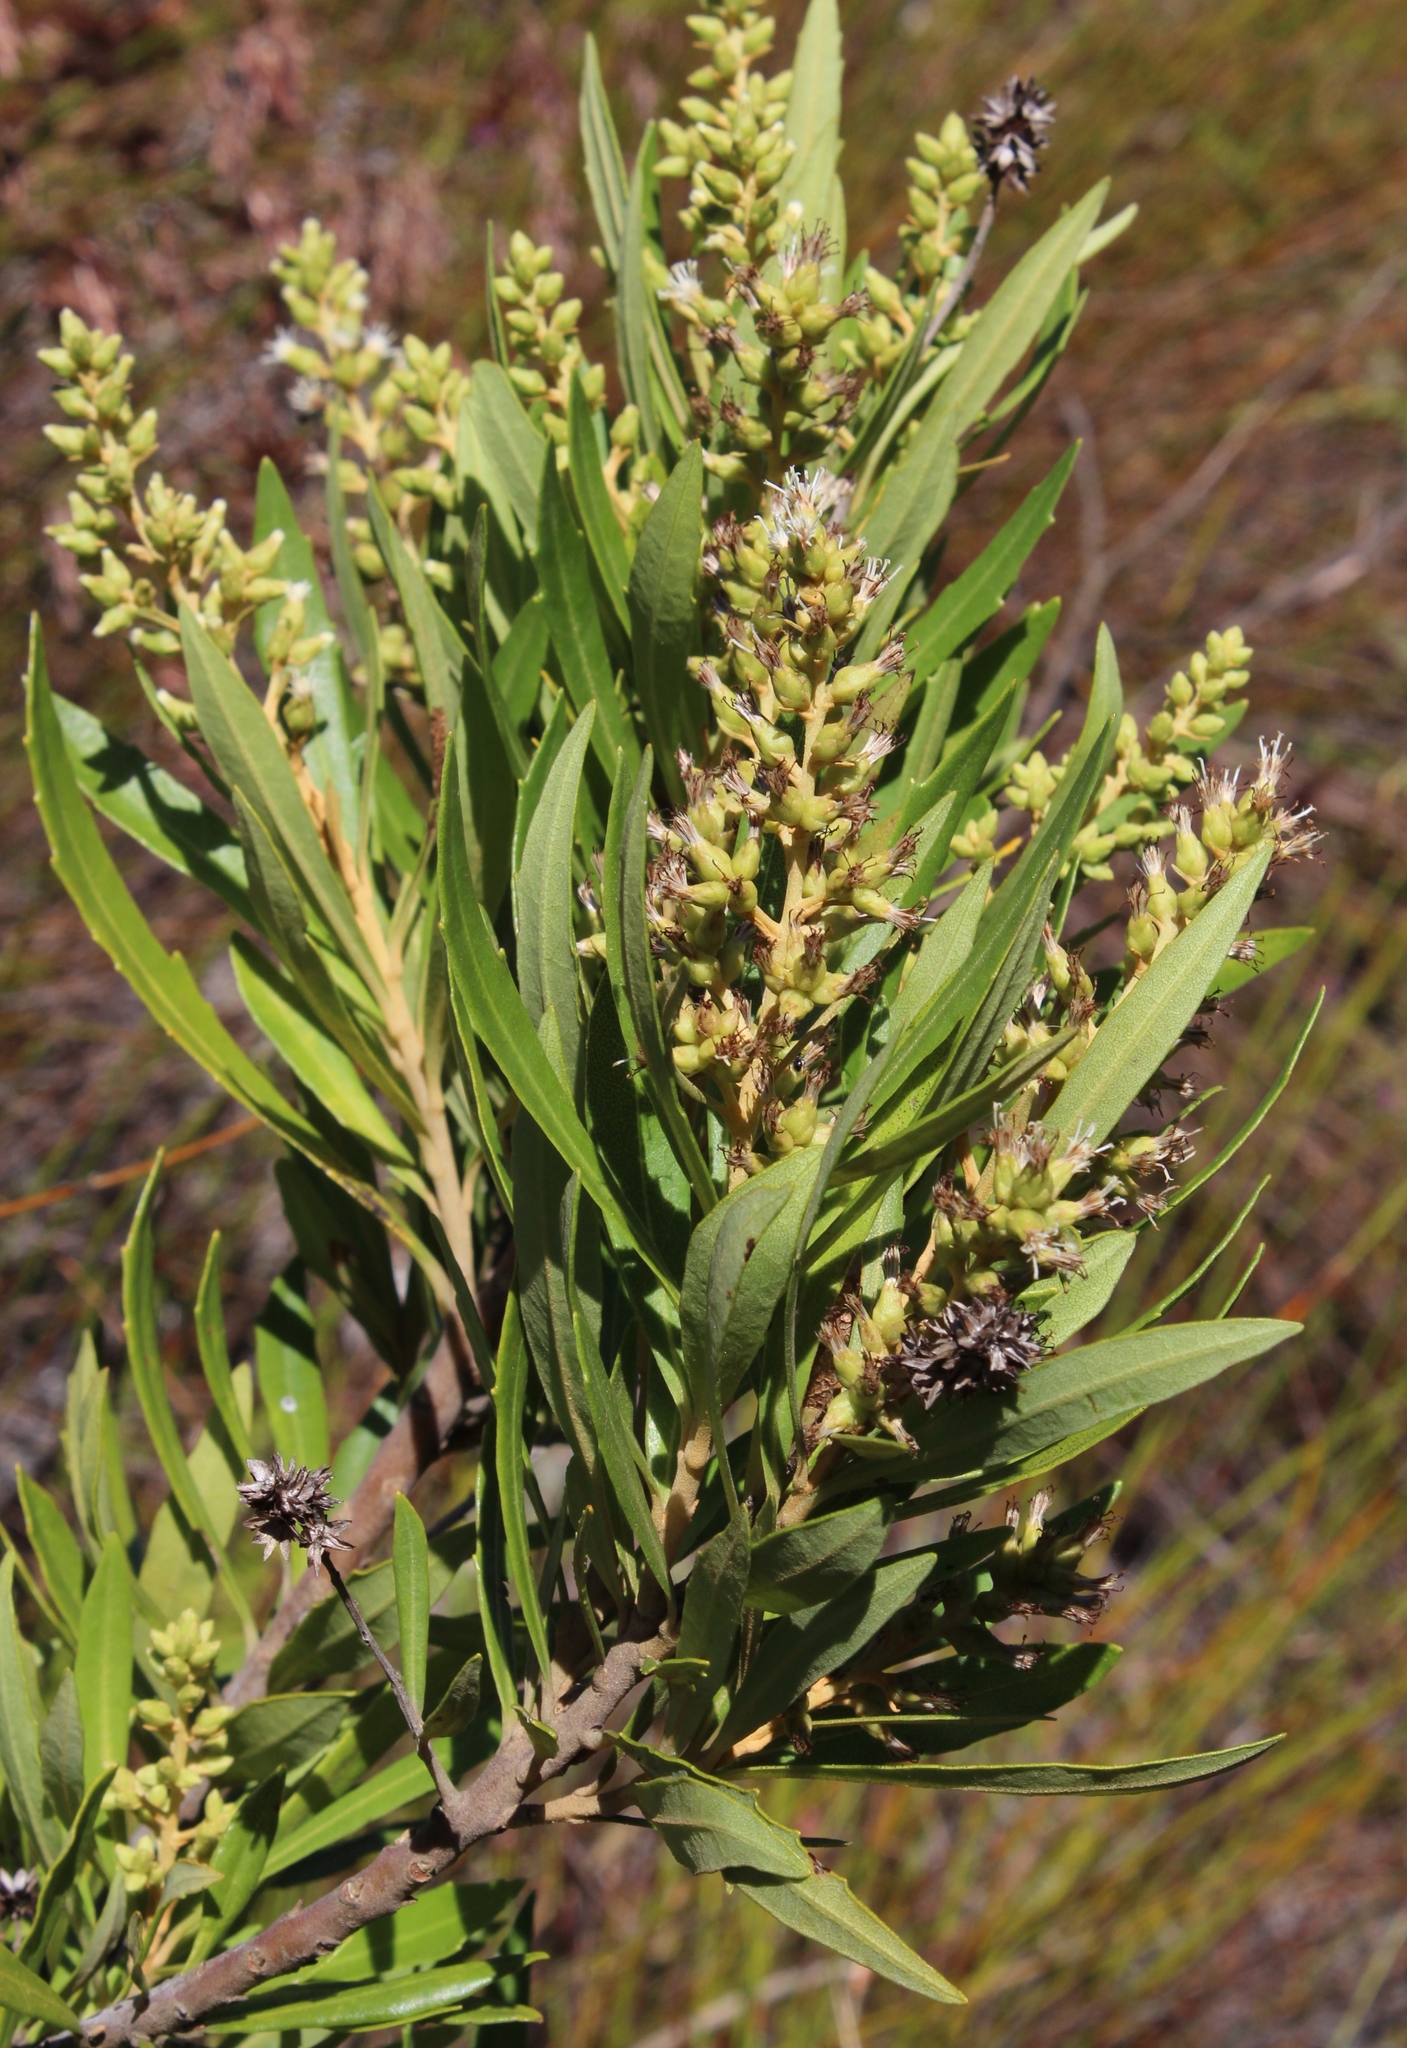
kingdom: Plantae
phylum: Tracheophyta
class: Magnoliopsida
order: Asterales
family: Asteraceae
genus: Brachylaena
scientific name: Brachylaena neriifolia
